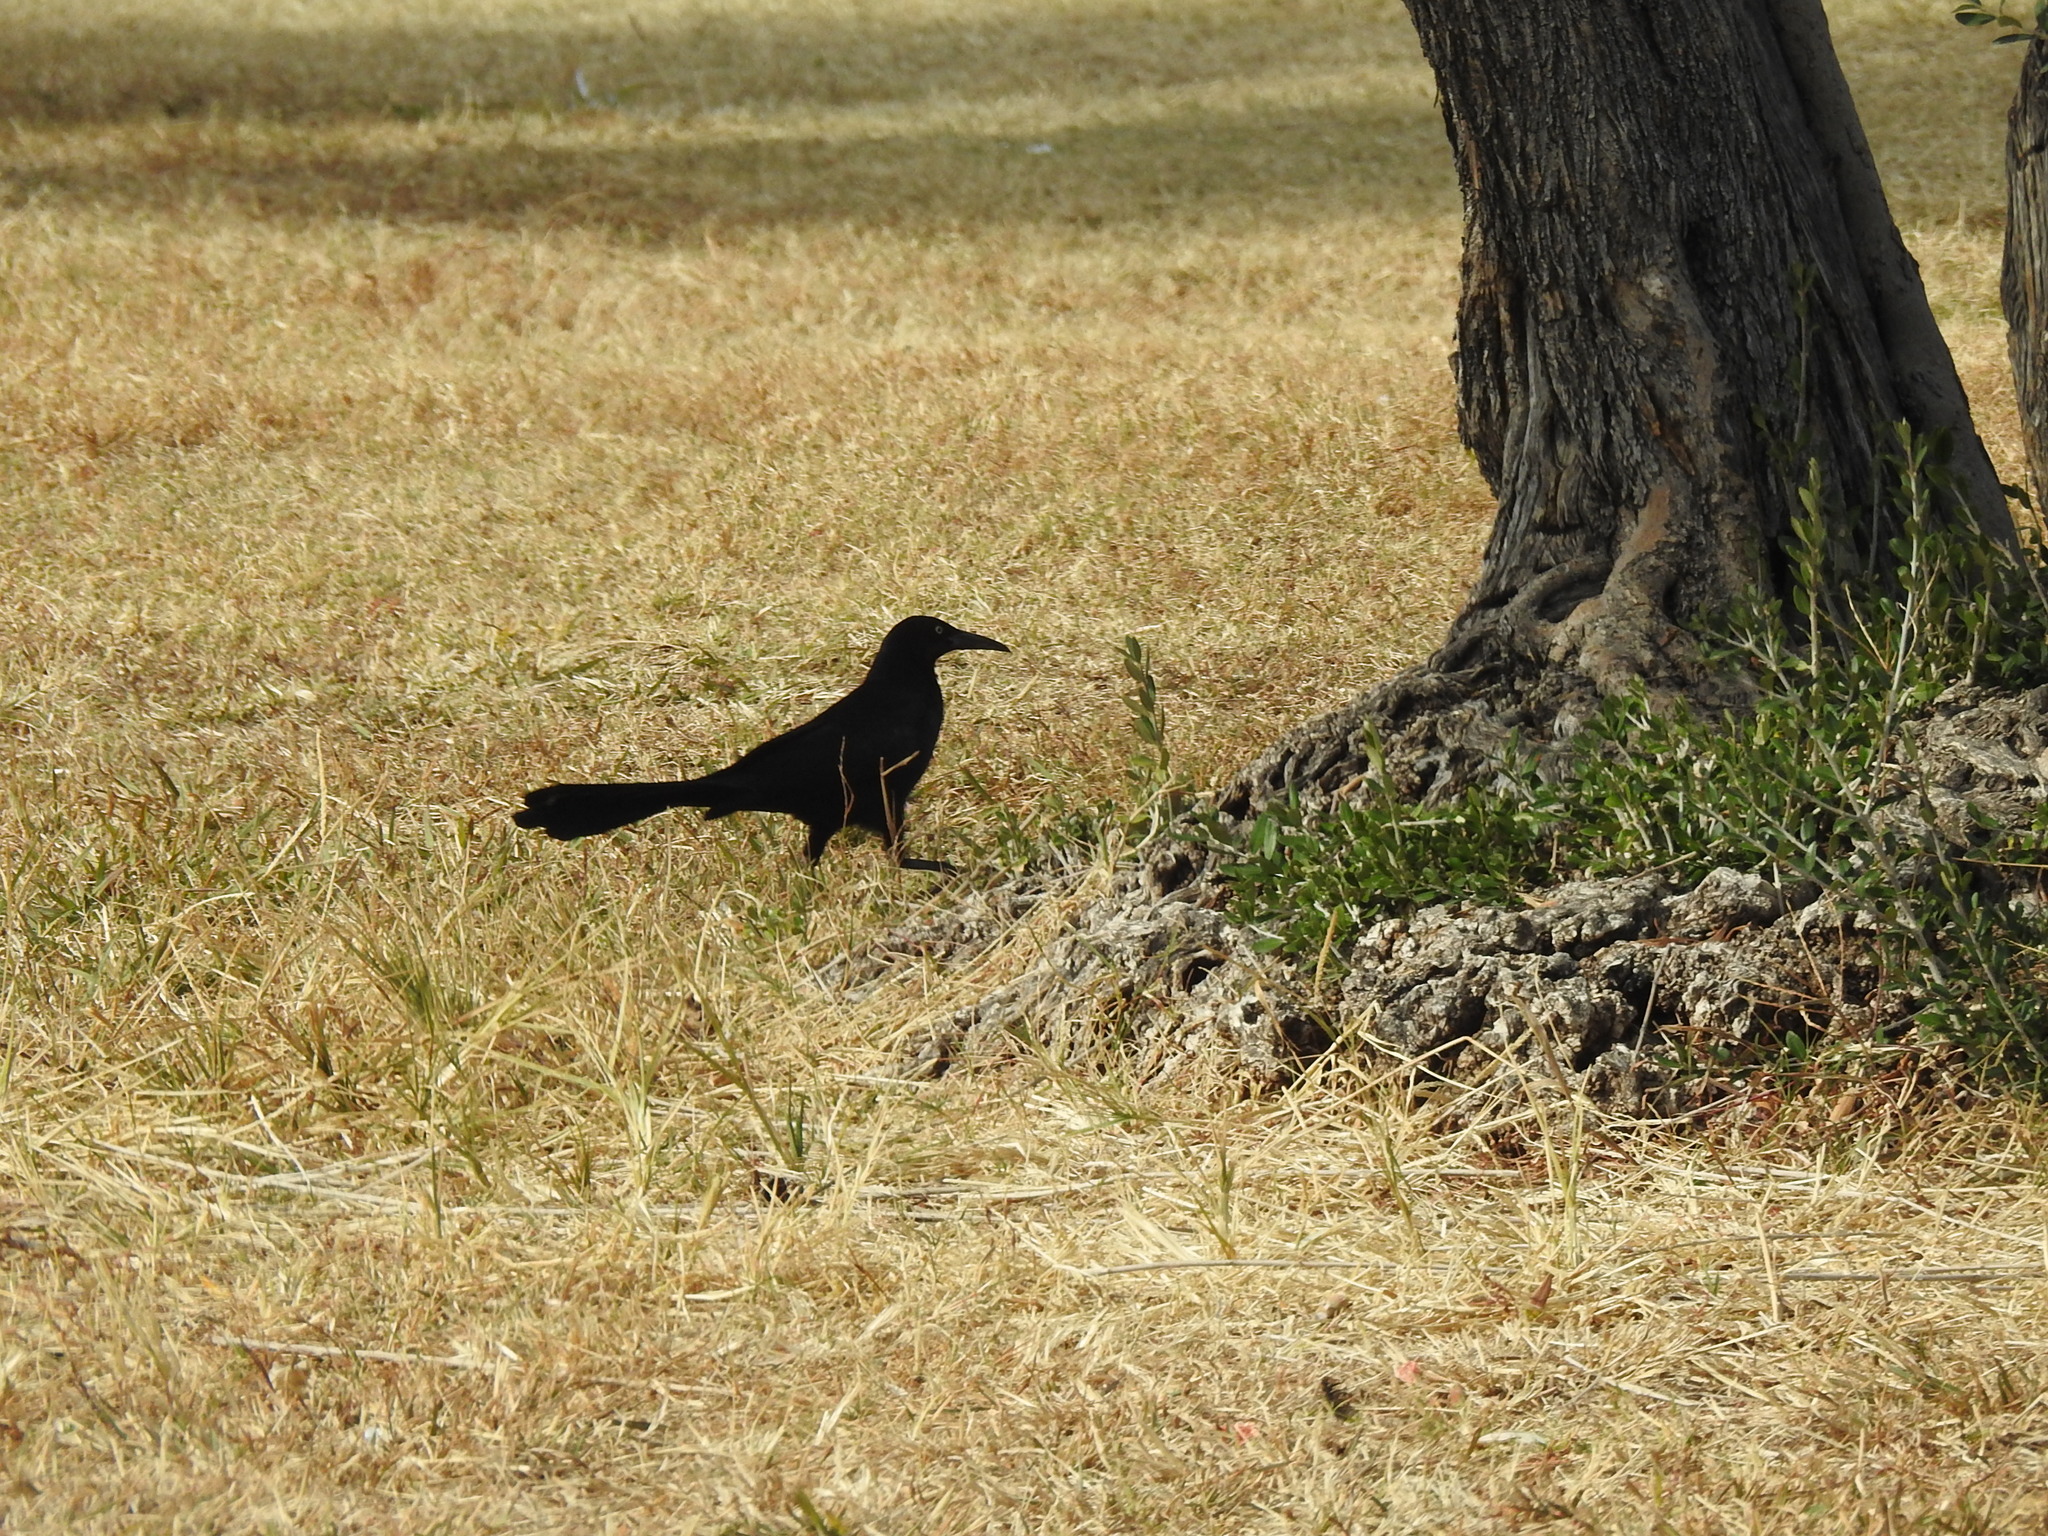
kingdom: Animalia
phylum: Chordata
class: Aves
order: Passeriformes
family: Icteridae
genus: Quiscalus
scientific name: Quiscalus mexicanus
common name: Great-tailed grackle
